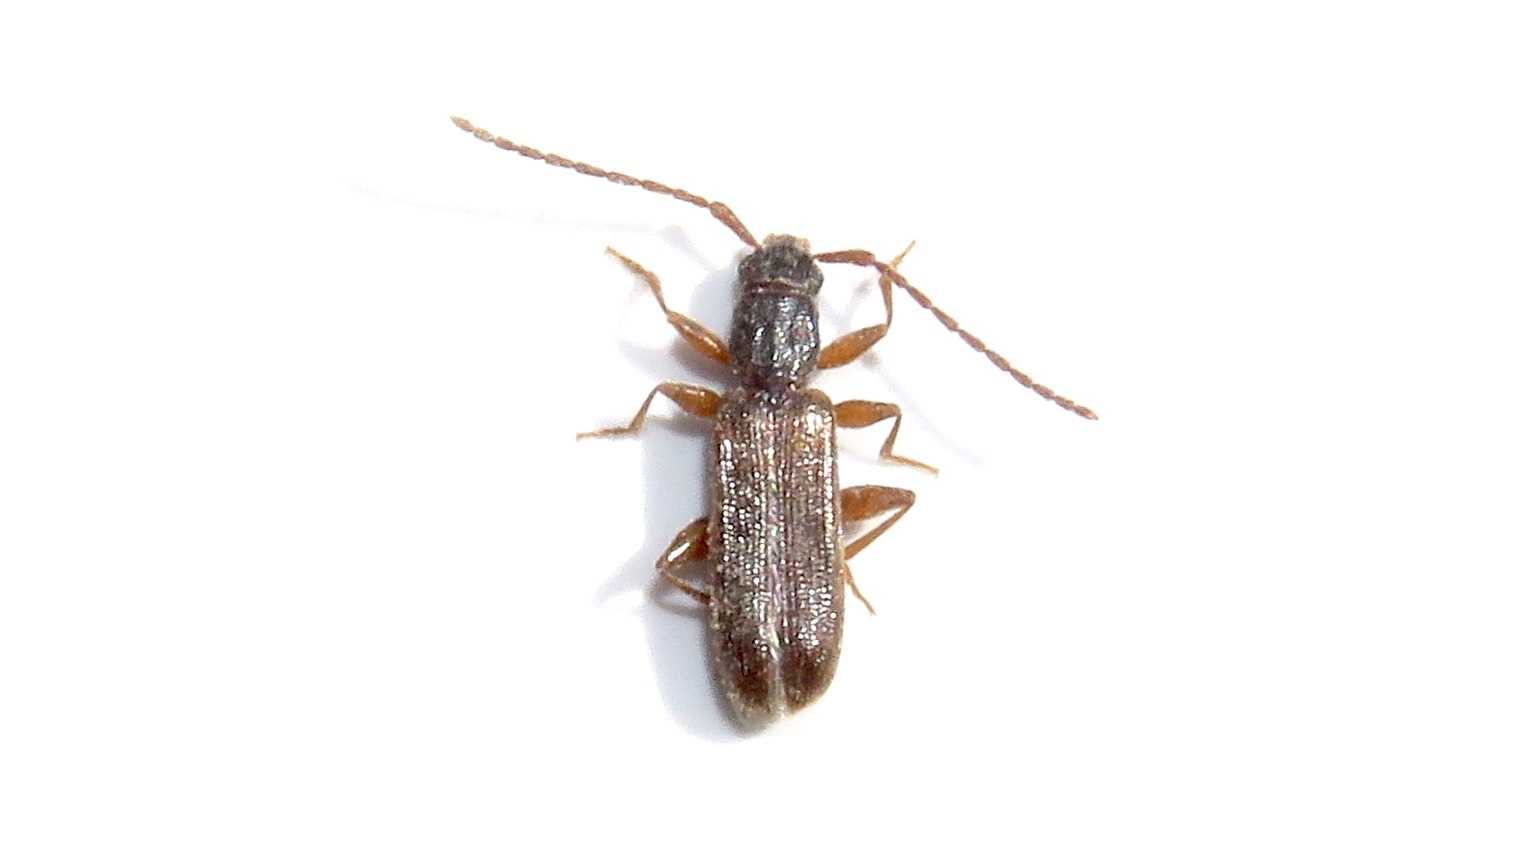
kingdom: Animalia
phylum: Arthropoda
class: Insecta
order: Coleoptera
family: Silvanidae
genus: Dendrophagus
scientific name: Dendrophagus cygnaei
